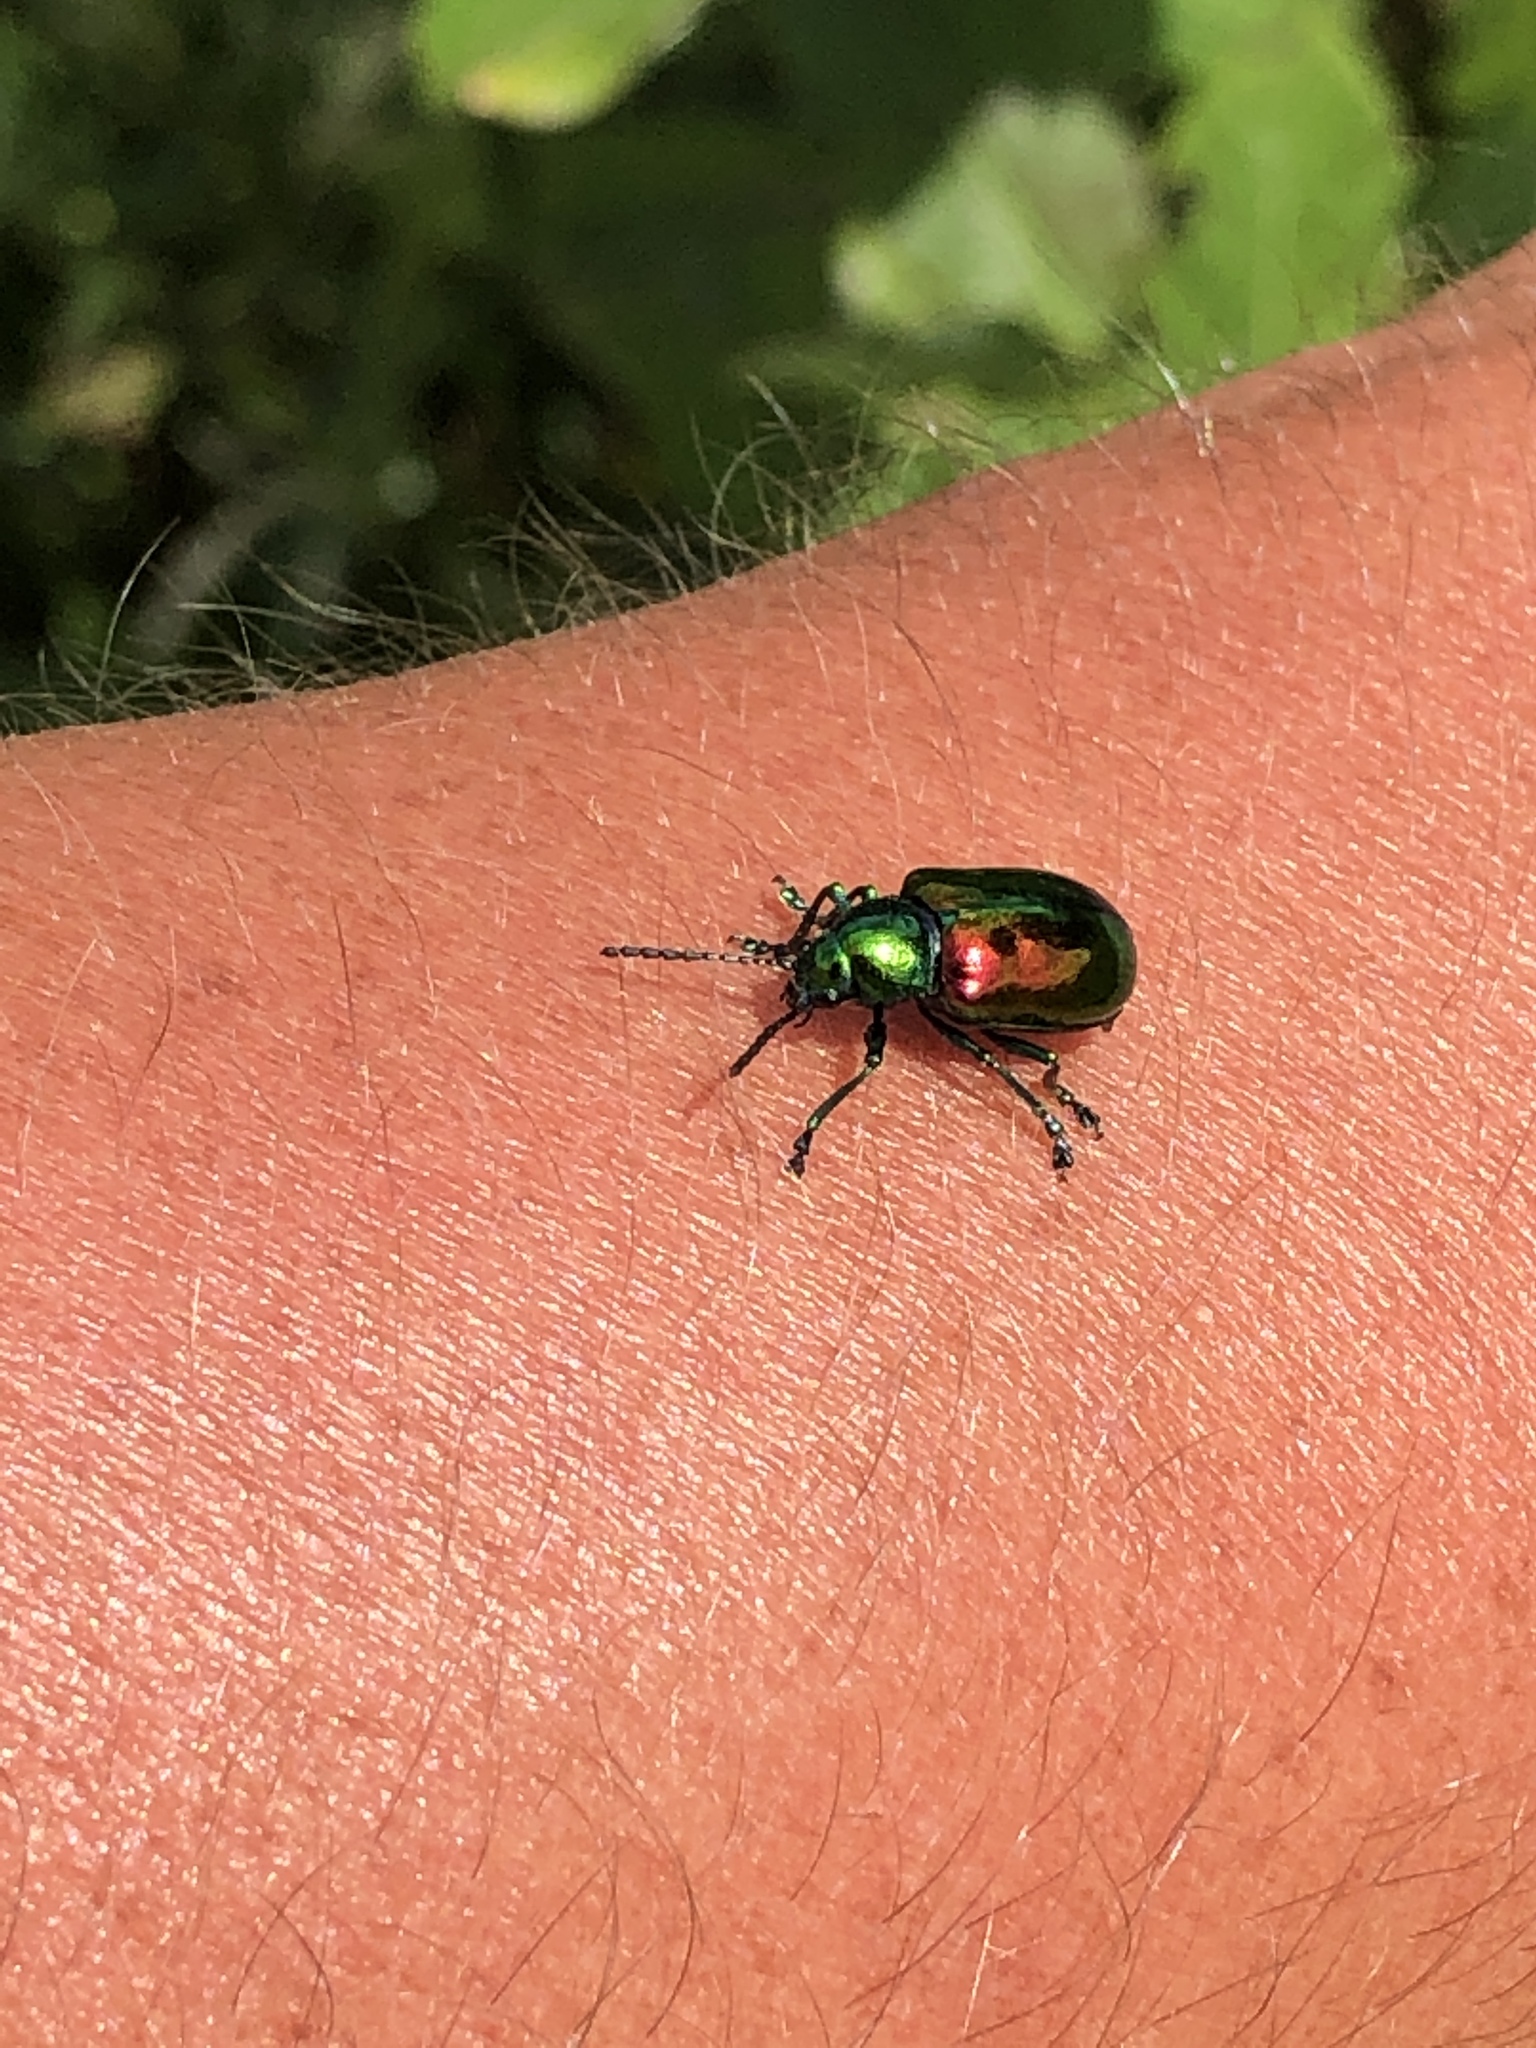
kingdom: Animalia
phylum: Arthropoda
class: Insecta
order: Coleoptera
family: Chrysomelidae
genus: Chrysochus
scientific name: Chrysochus auratus
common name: Dogbane leaf beetle
